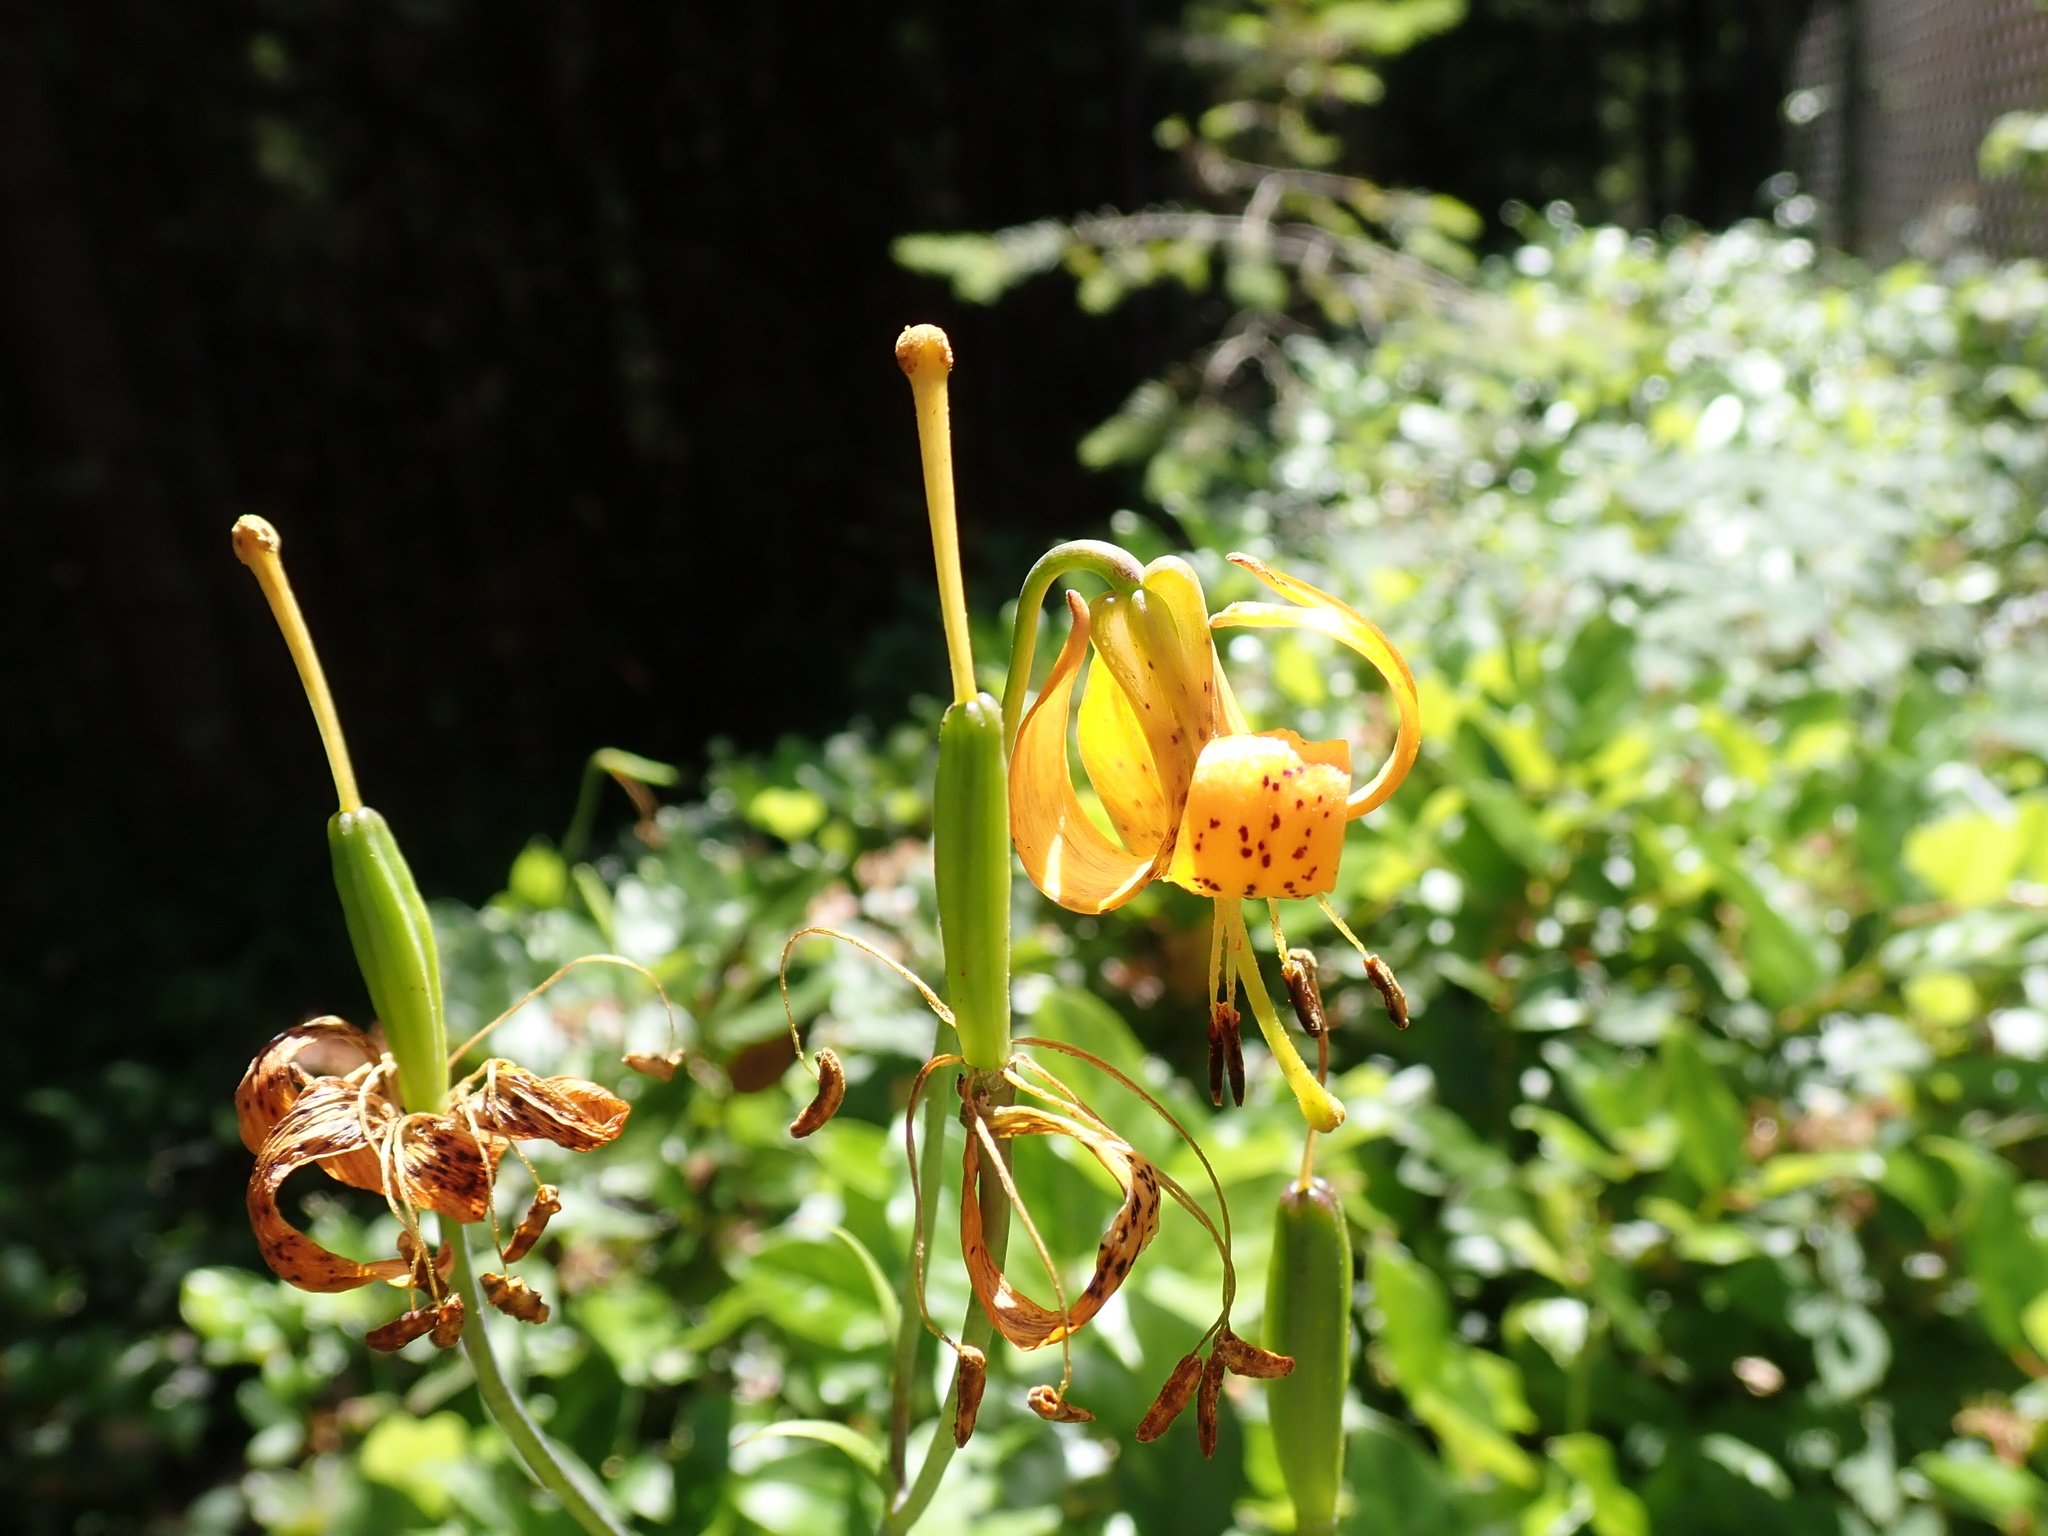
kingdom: Plantae
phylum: Tracheophyta
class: Liliopsida
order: Liliales
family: Liliaceae
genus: Lilium
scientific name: Lilium columbianum
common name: Columbia lily
